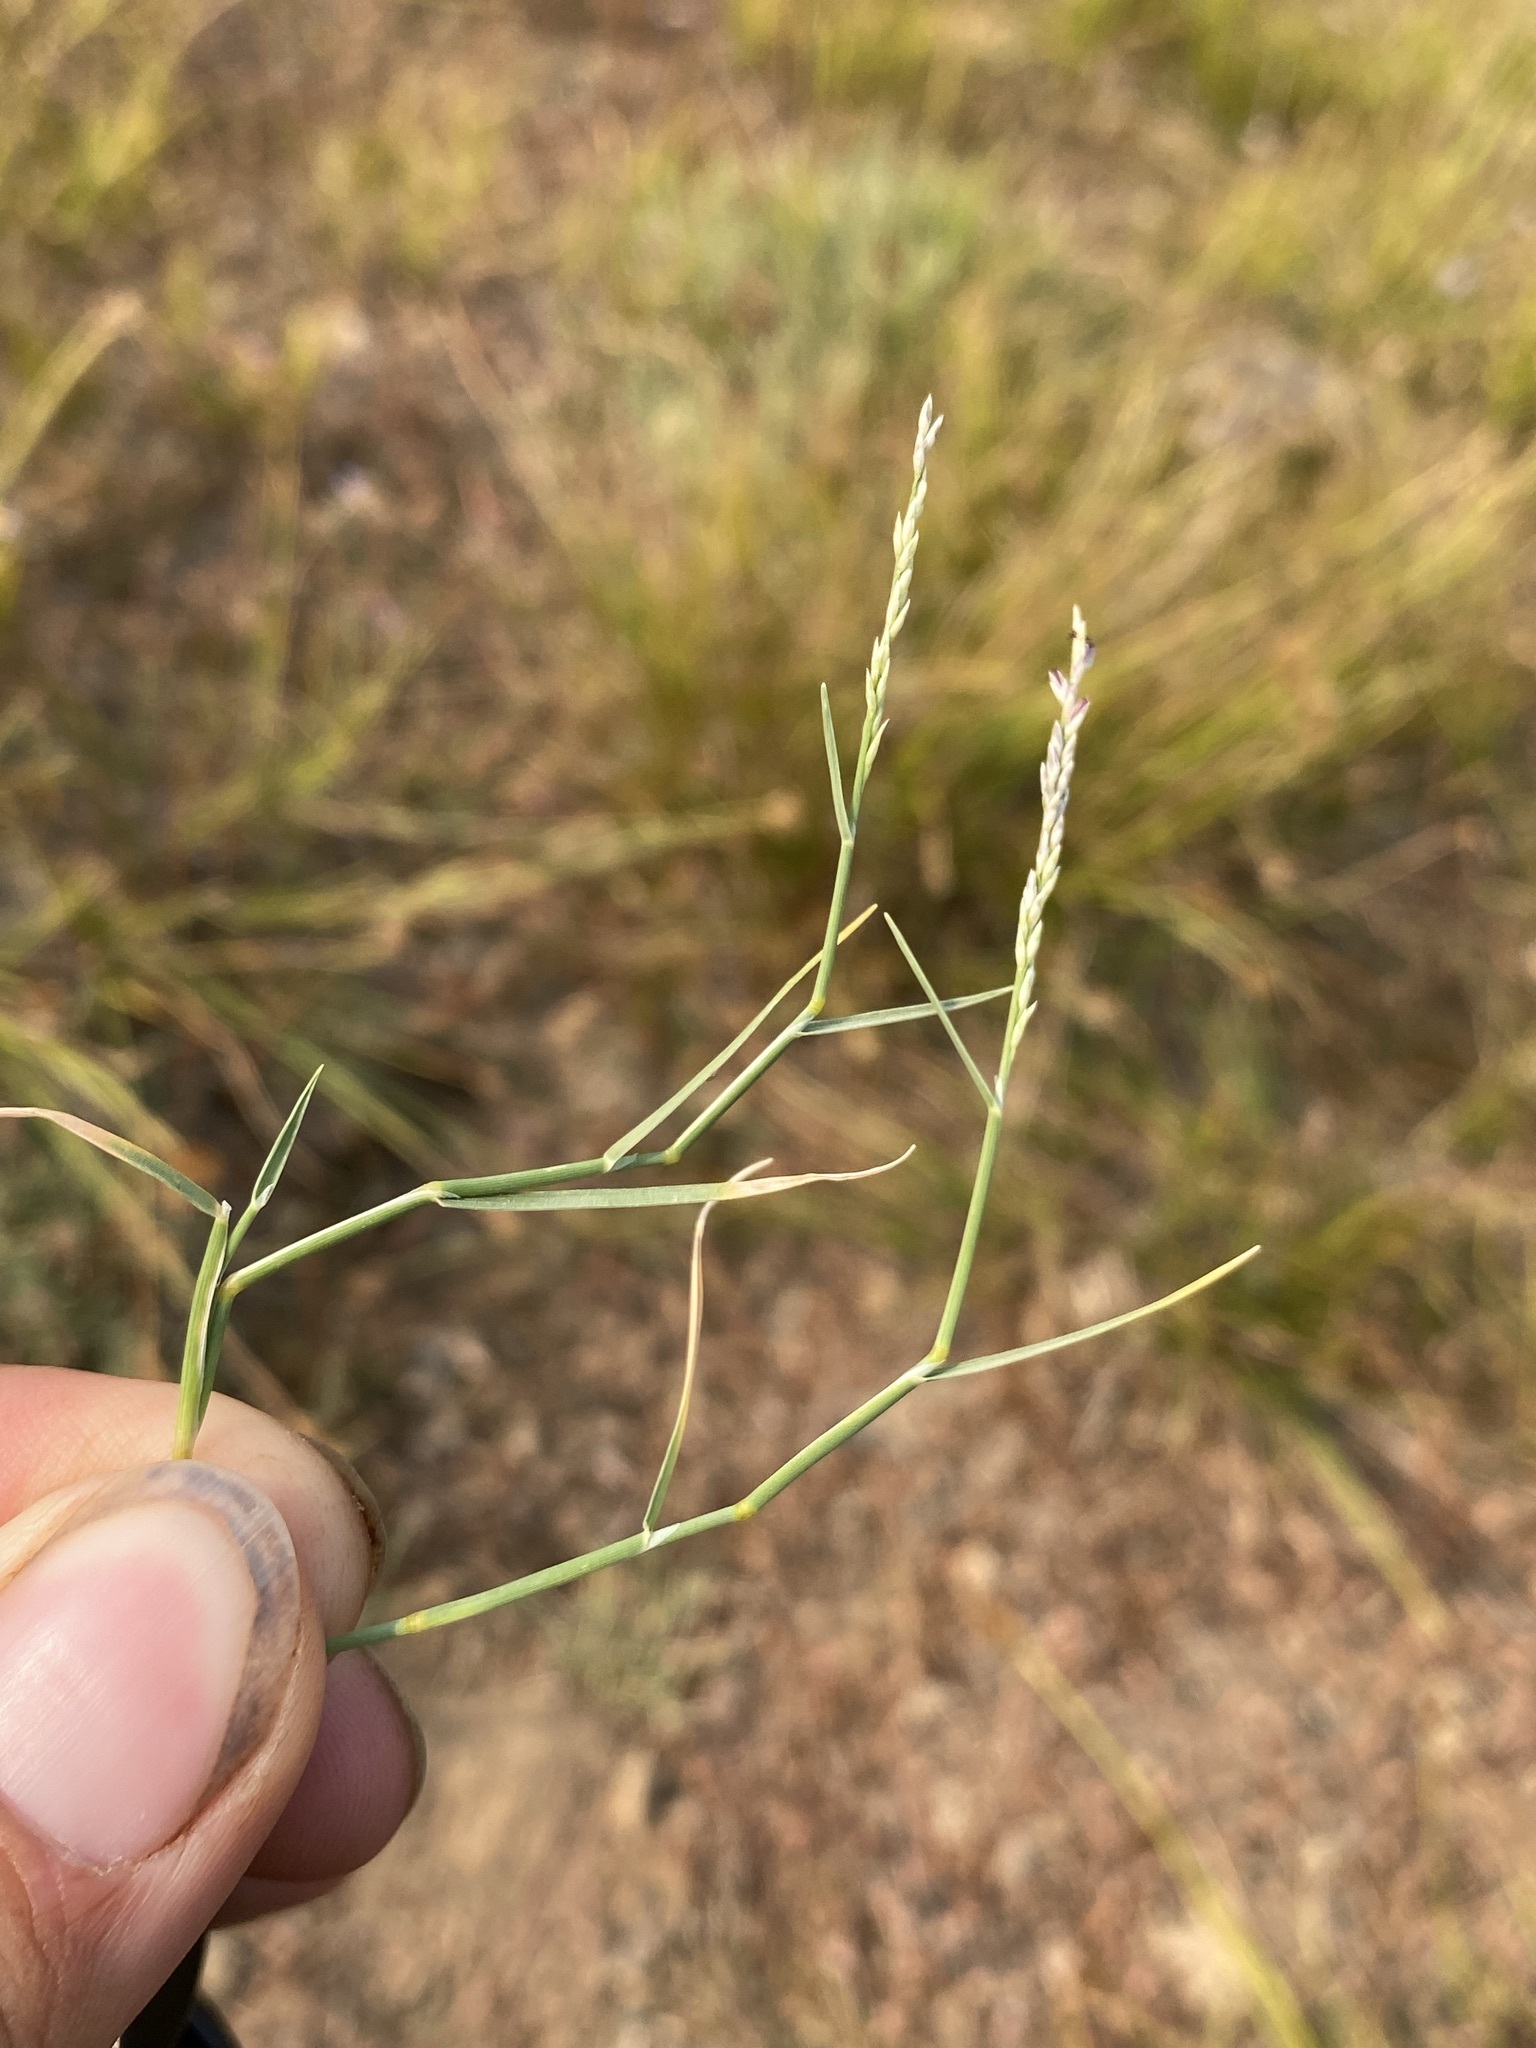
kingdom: Plantae
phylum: Tracheophyta
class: Liliopsida
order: Poales
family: Poaceae
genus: Muhlenbergia
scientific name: Muhlenbergia richardsonis
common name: Mat muhly
